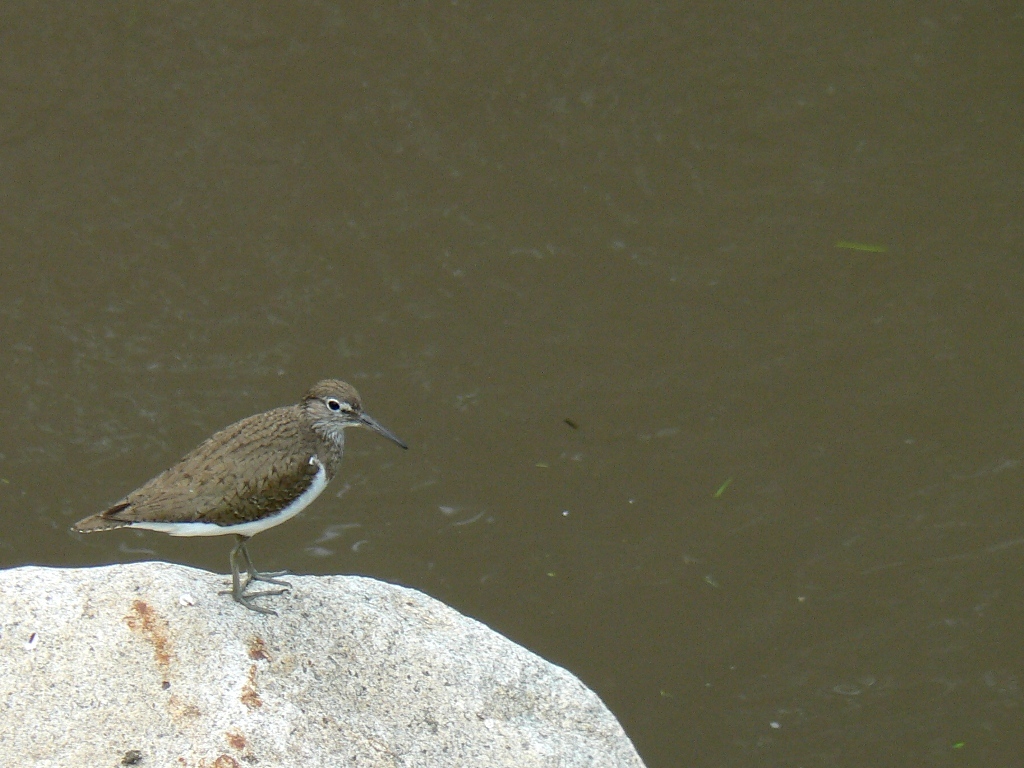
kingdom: Animalia
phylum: Chordata
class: Aves
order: Charadriiformes
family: Scolopacidae
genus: Actitis
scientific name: Actitis hypoleucos
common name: Common sandpiper
